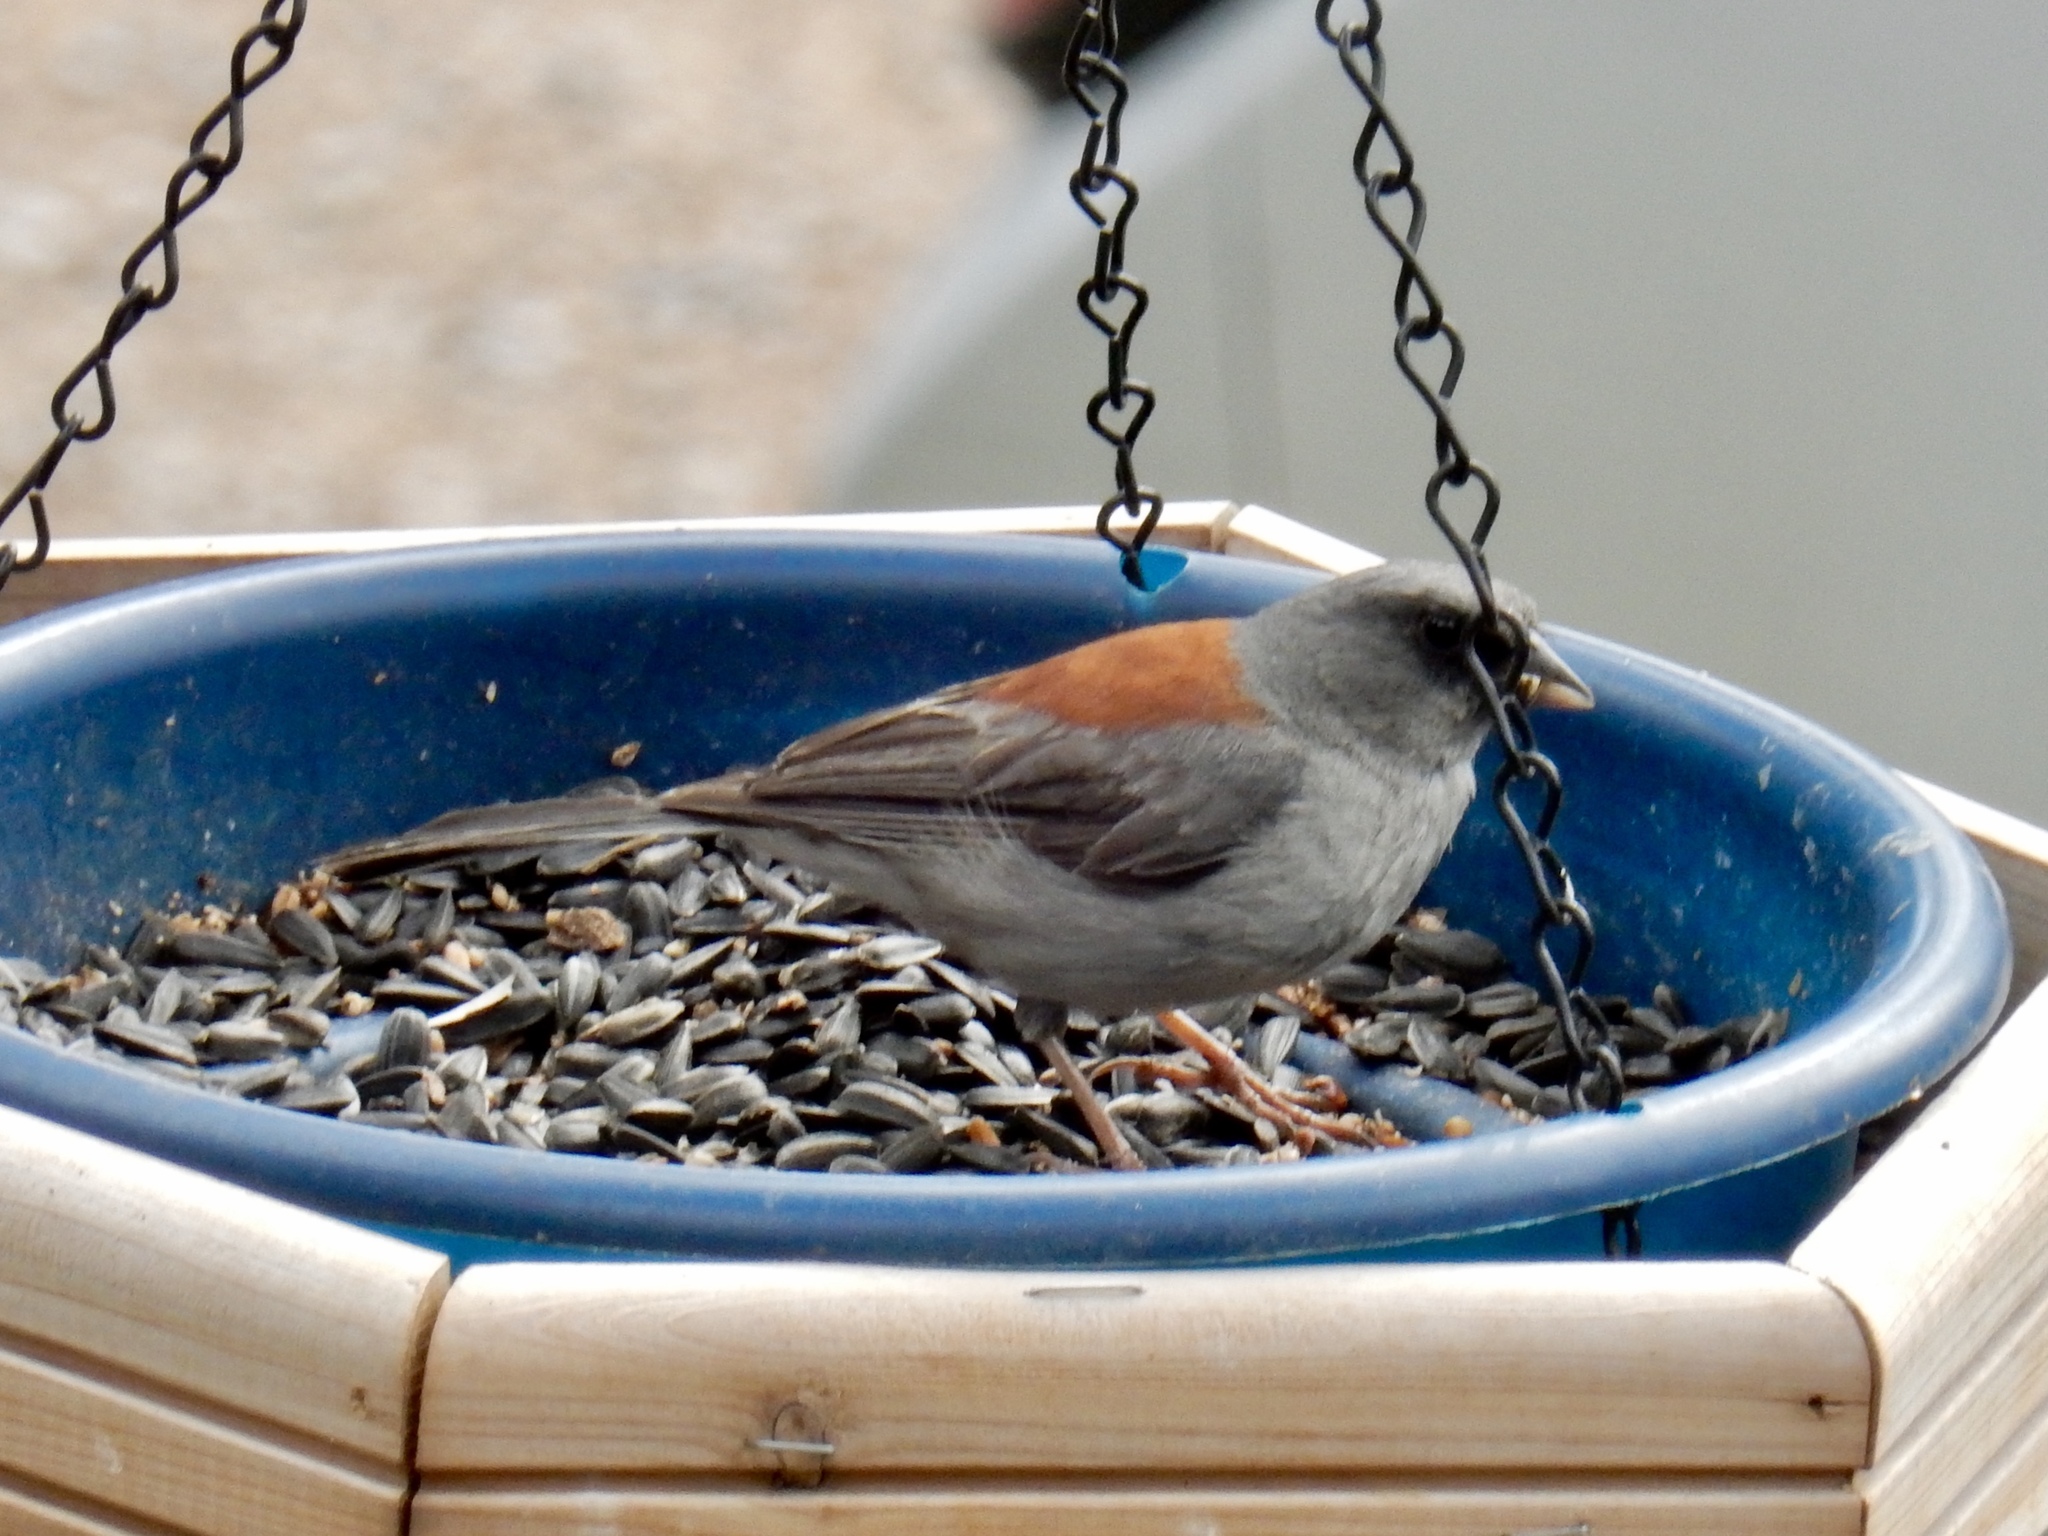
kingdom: Animalia
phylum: Chordata
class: Aves
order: Passeriformes
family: Passerellidae
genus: Junco
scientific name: Junco hyemalis
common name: Dark-eyed junco
